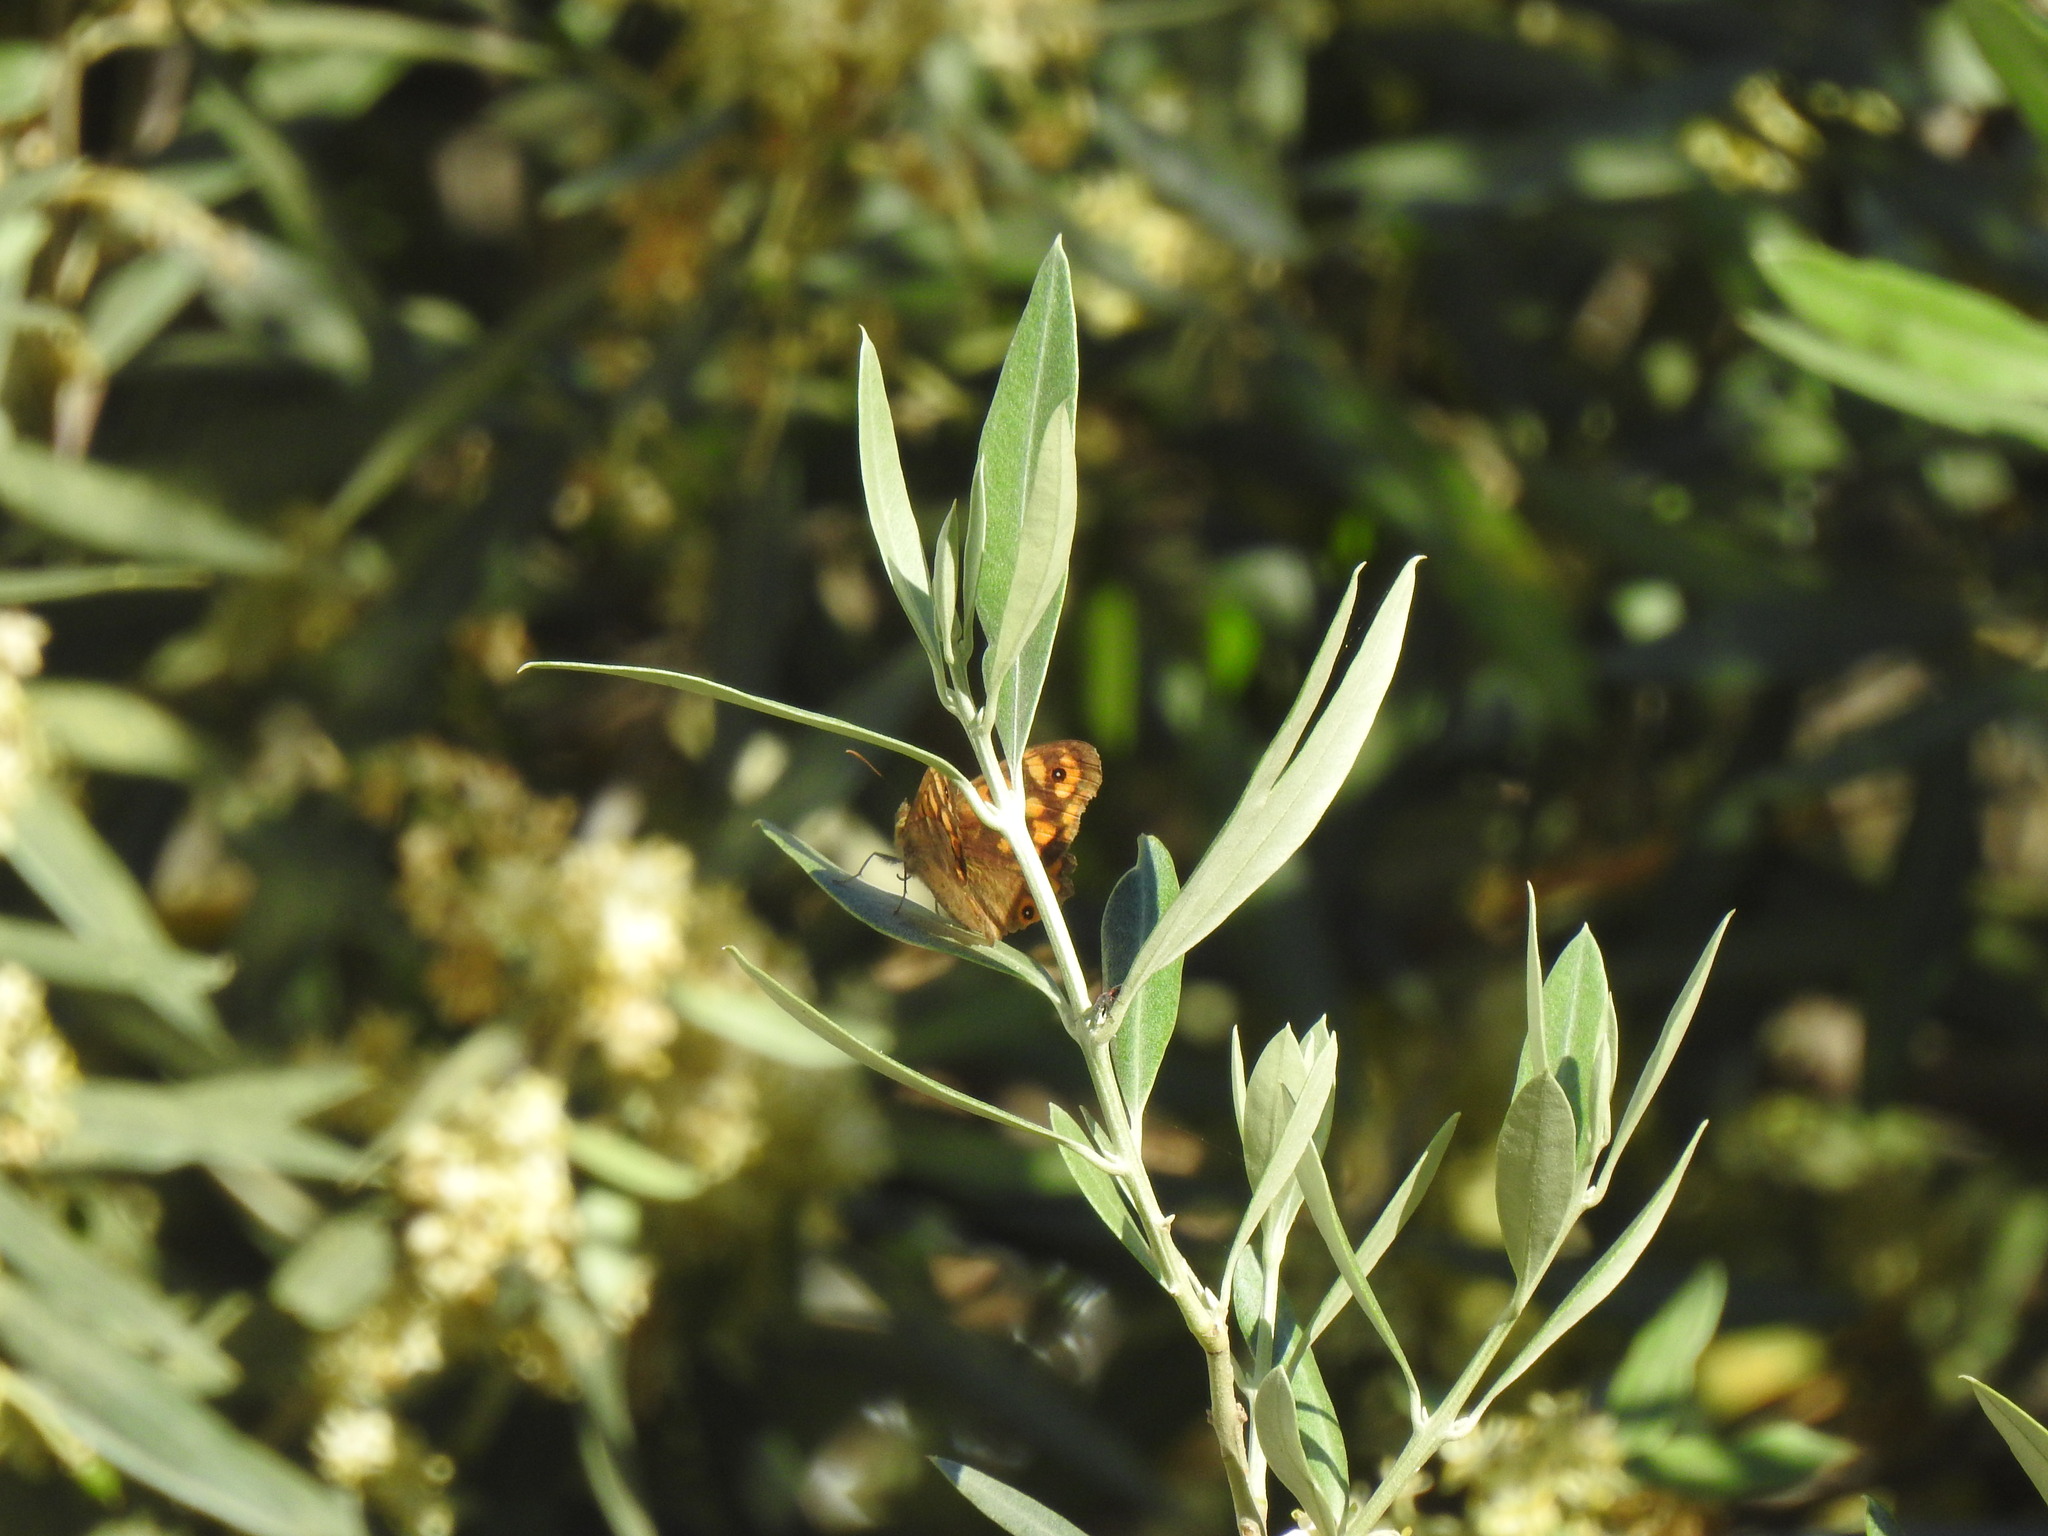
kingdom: Animalia
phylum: Arthropoda
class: Insecta
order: Lepidoptera
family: Nymphalidae
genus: Pararge
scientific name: Pararge aegeria
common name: Speckled wood
